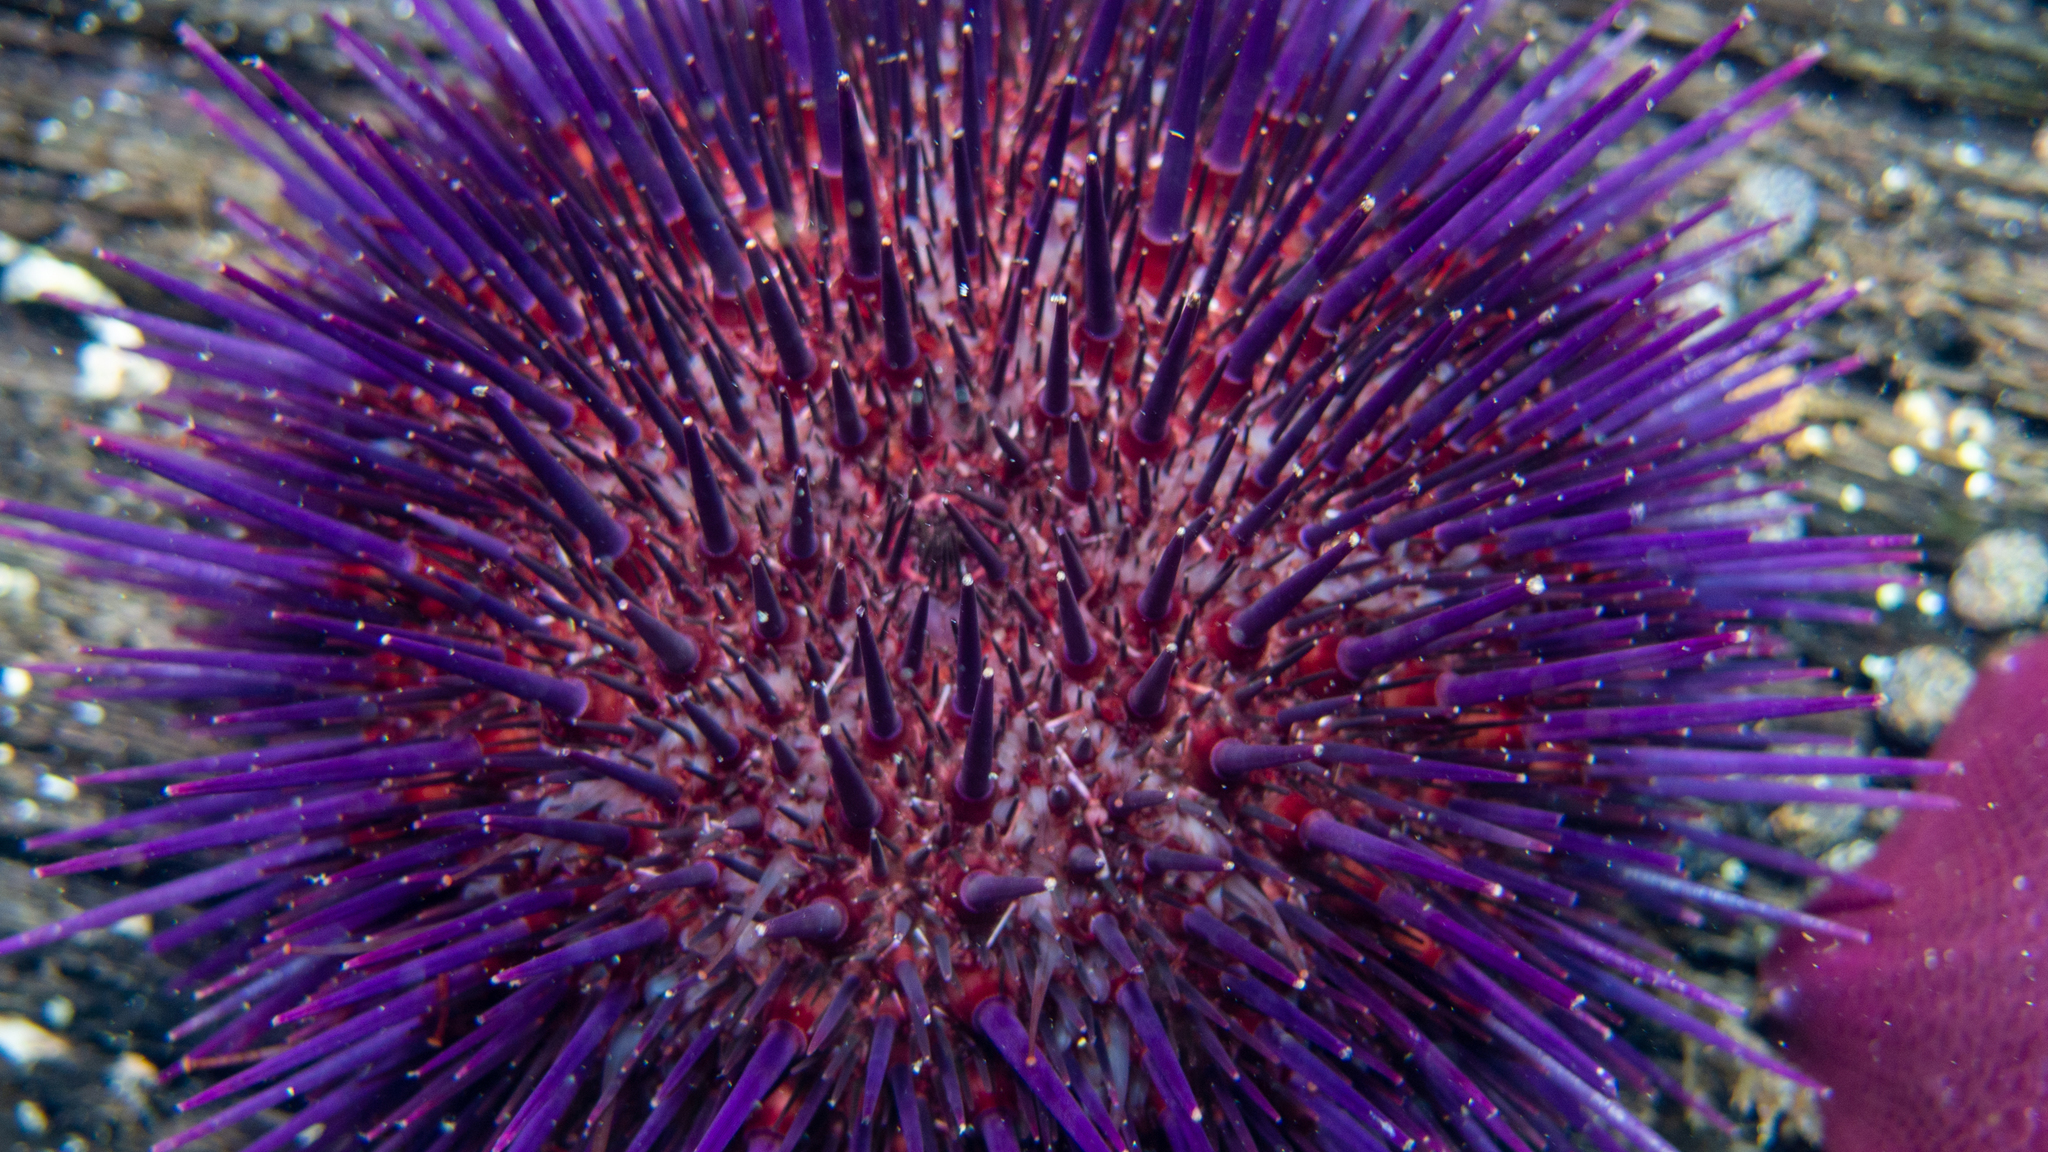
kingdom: Animalia
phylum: Echinodermata
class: Echinoidea
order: Camarodonta
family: Echinometridae
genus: Heliocidaris
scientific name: Heliocidaris erythrogramma
